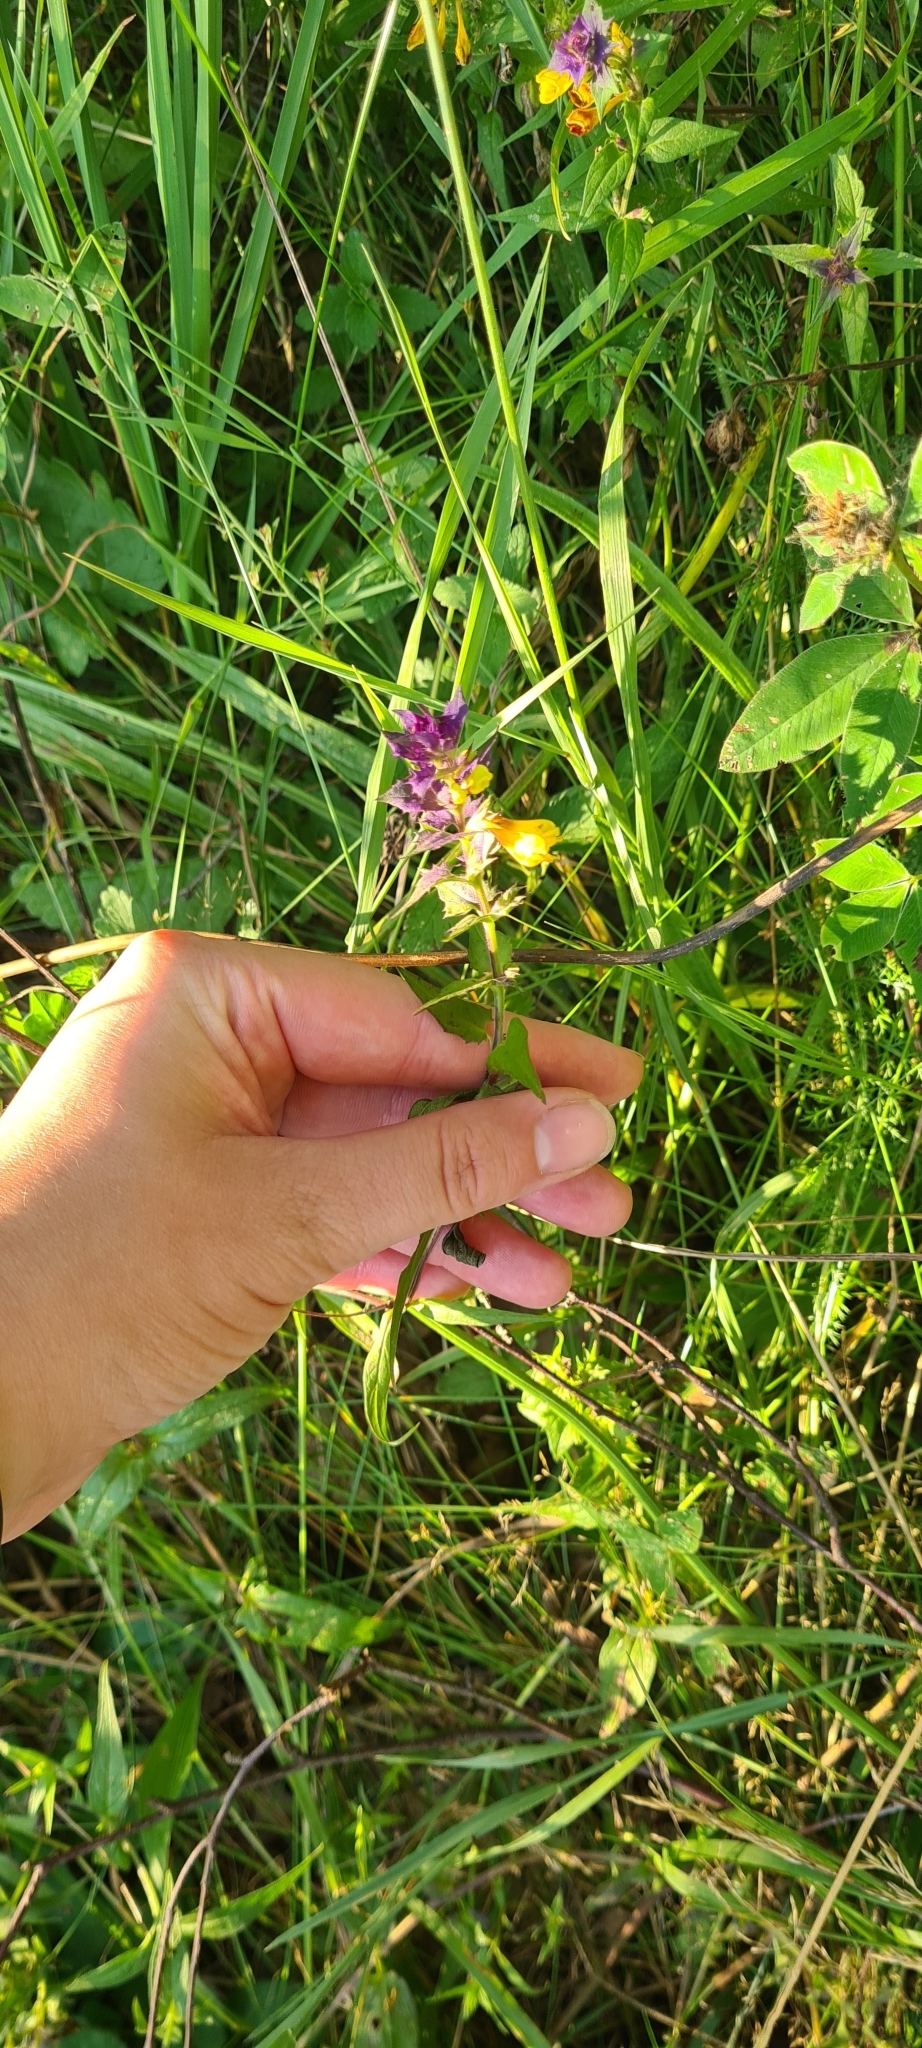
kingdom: Plantae
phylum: Tracheophyta
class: Magnoliopsida
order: Lamiales
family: Orobanchaceae
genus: Melampyrum
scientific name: Melampyrum nemorosum
